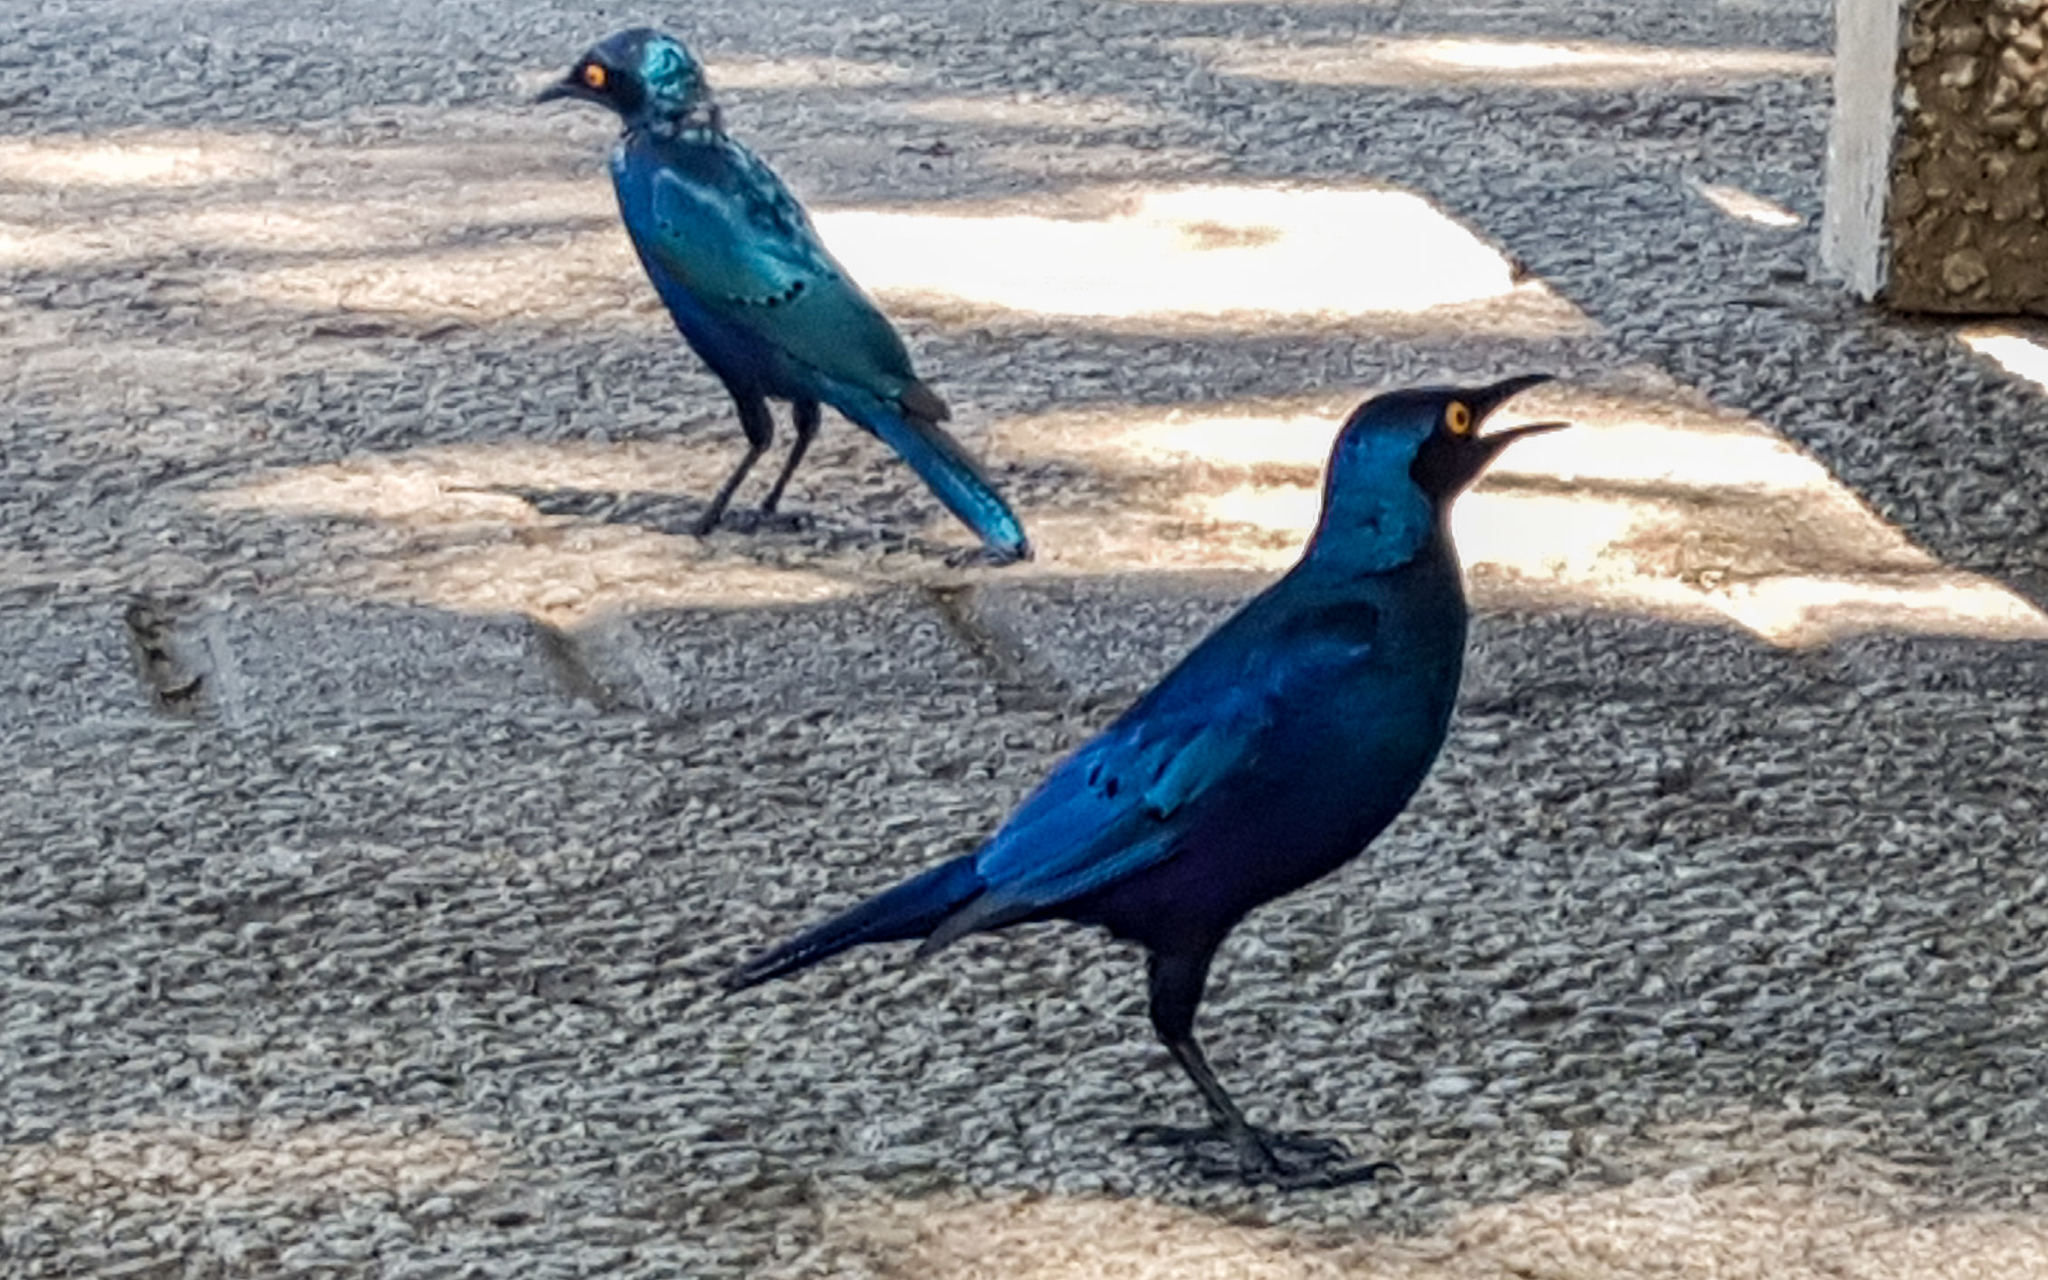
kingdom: Animalia
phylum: Chordata
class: Aves
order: Passeriformes
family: Sturnidae
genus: Lamprotornis
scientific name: Lamprotornis chalybaeus
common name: Greater blue-eared starling
